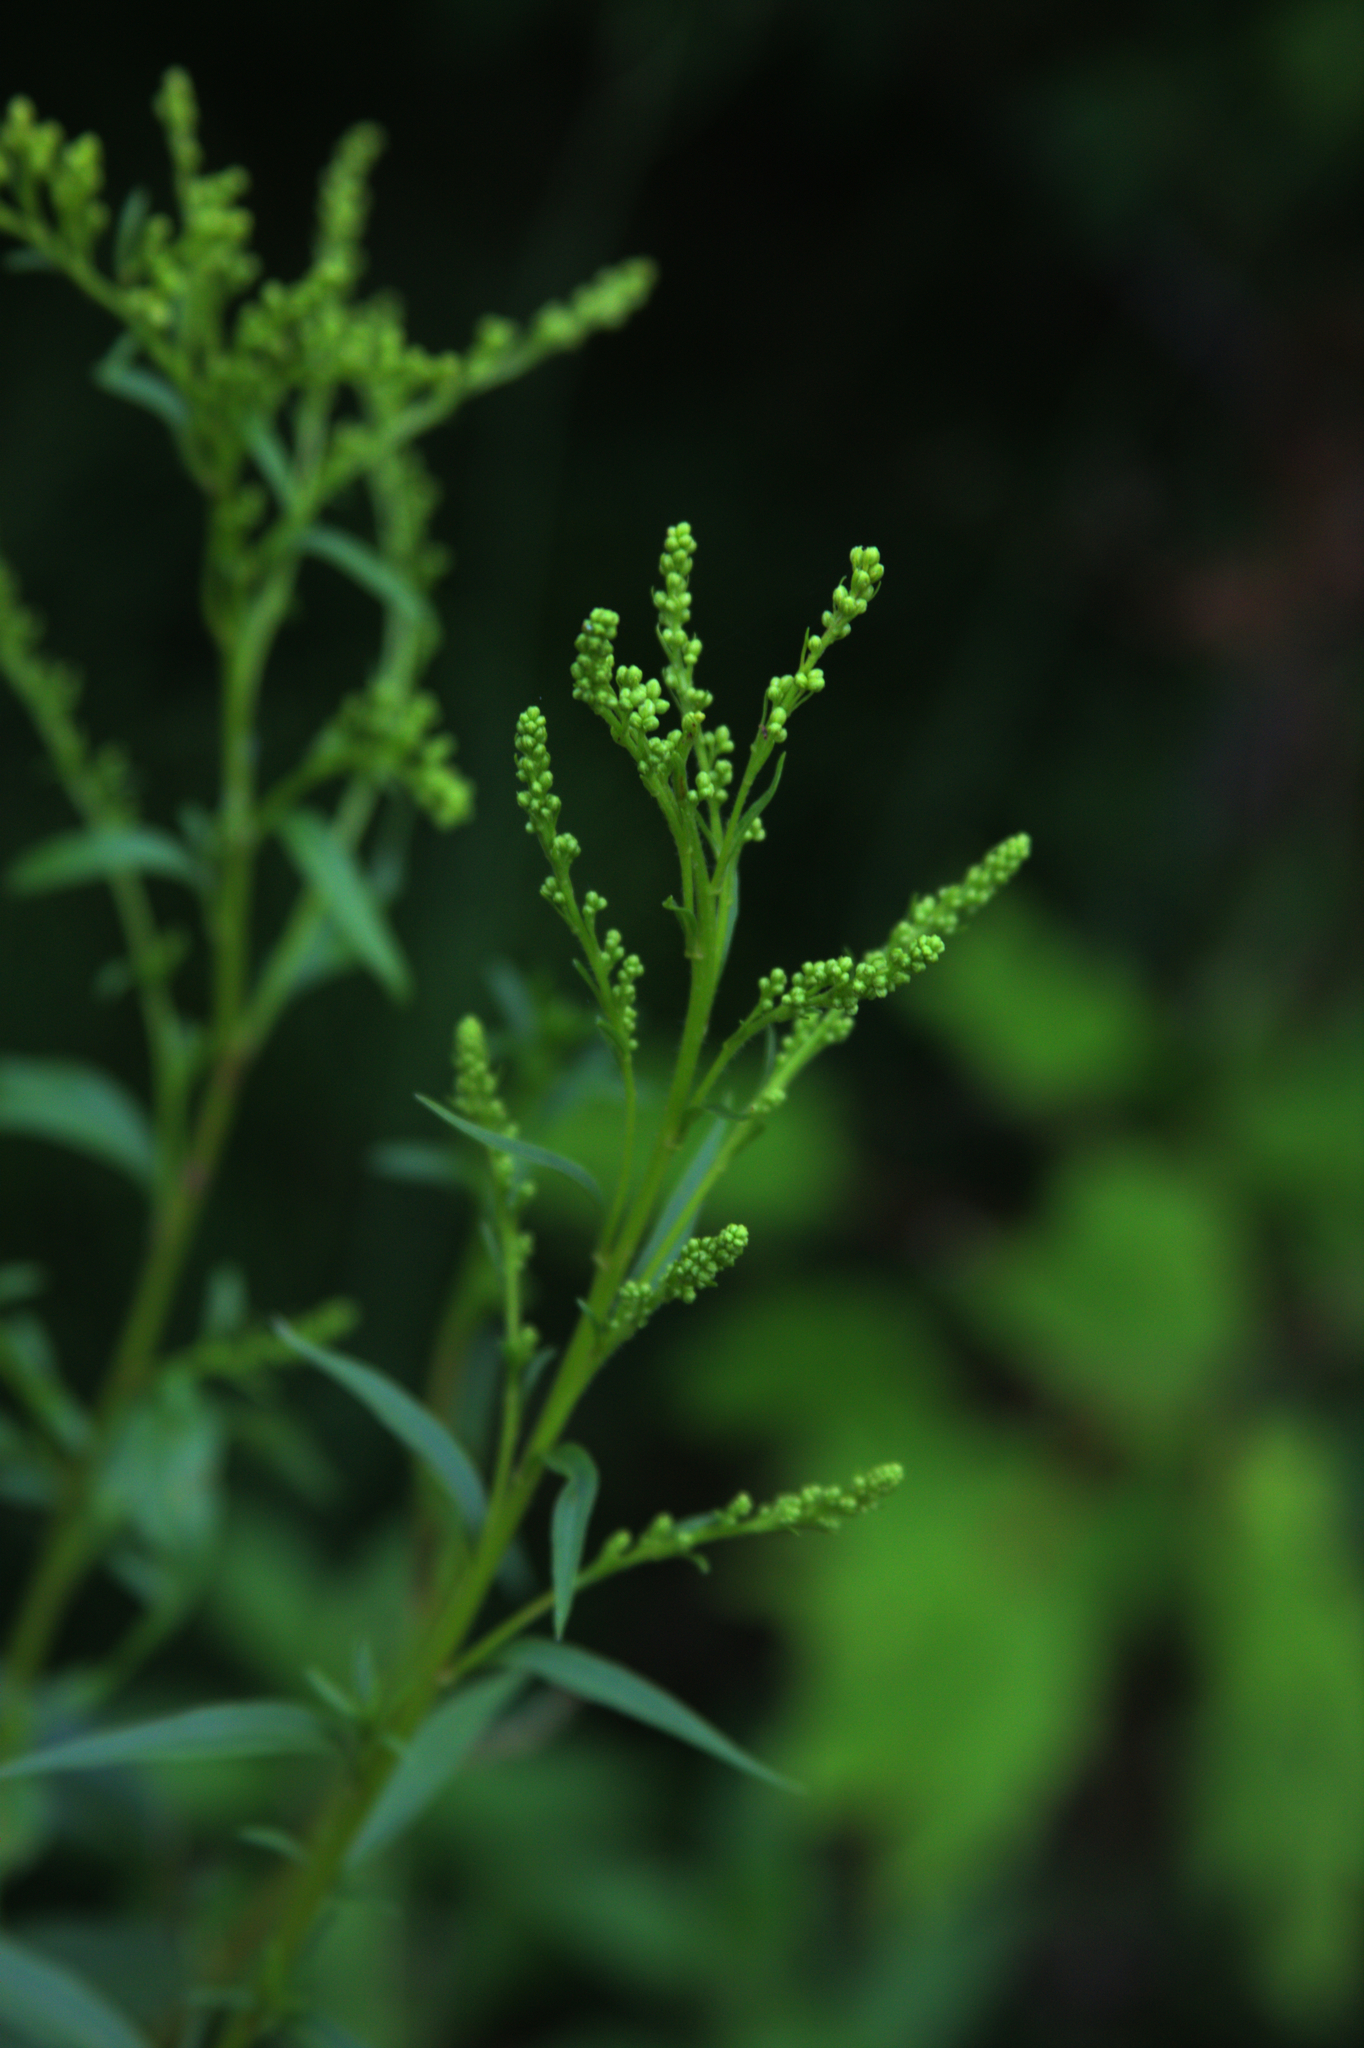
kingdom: Plantae
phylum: Tracheophyta
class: Magnoliopsida
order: Asterales
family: Asteraceae
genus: Solidago
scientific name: Solidago juncea
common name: Early goldenrod
